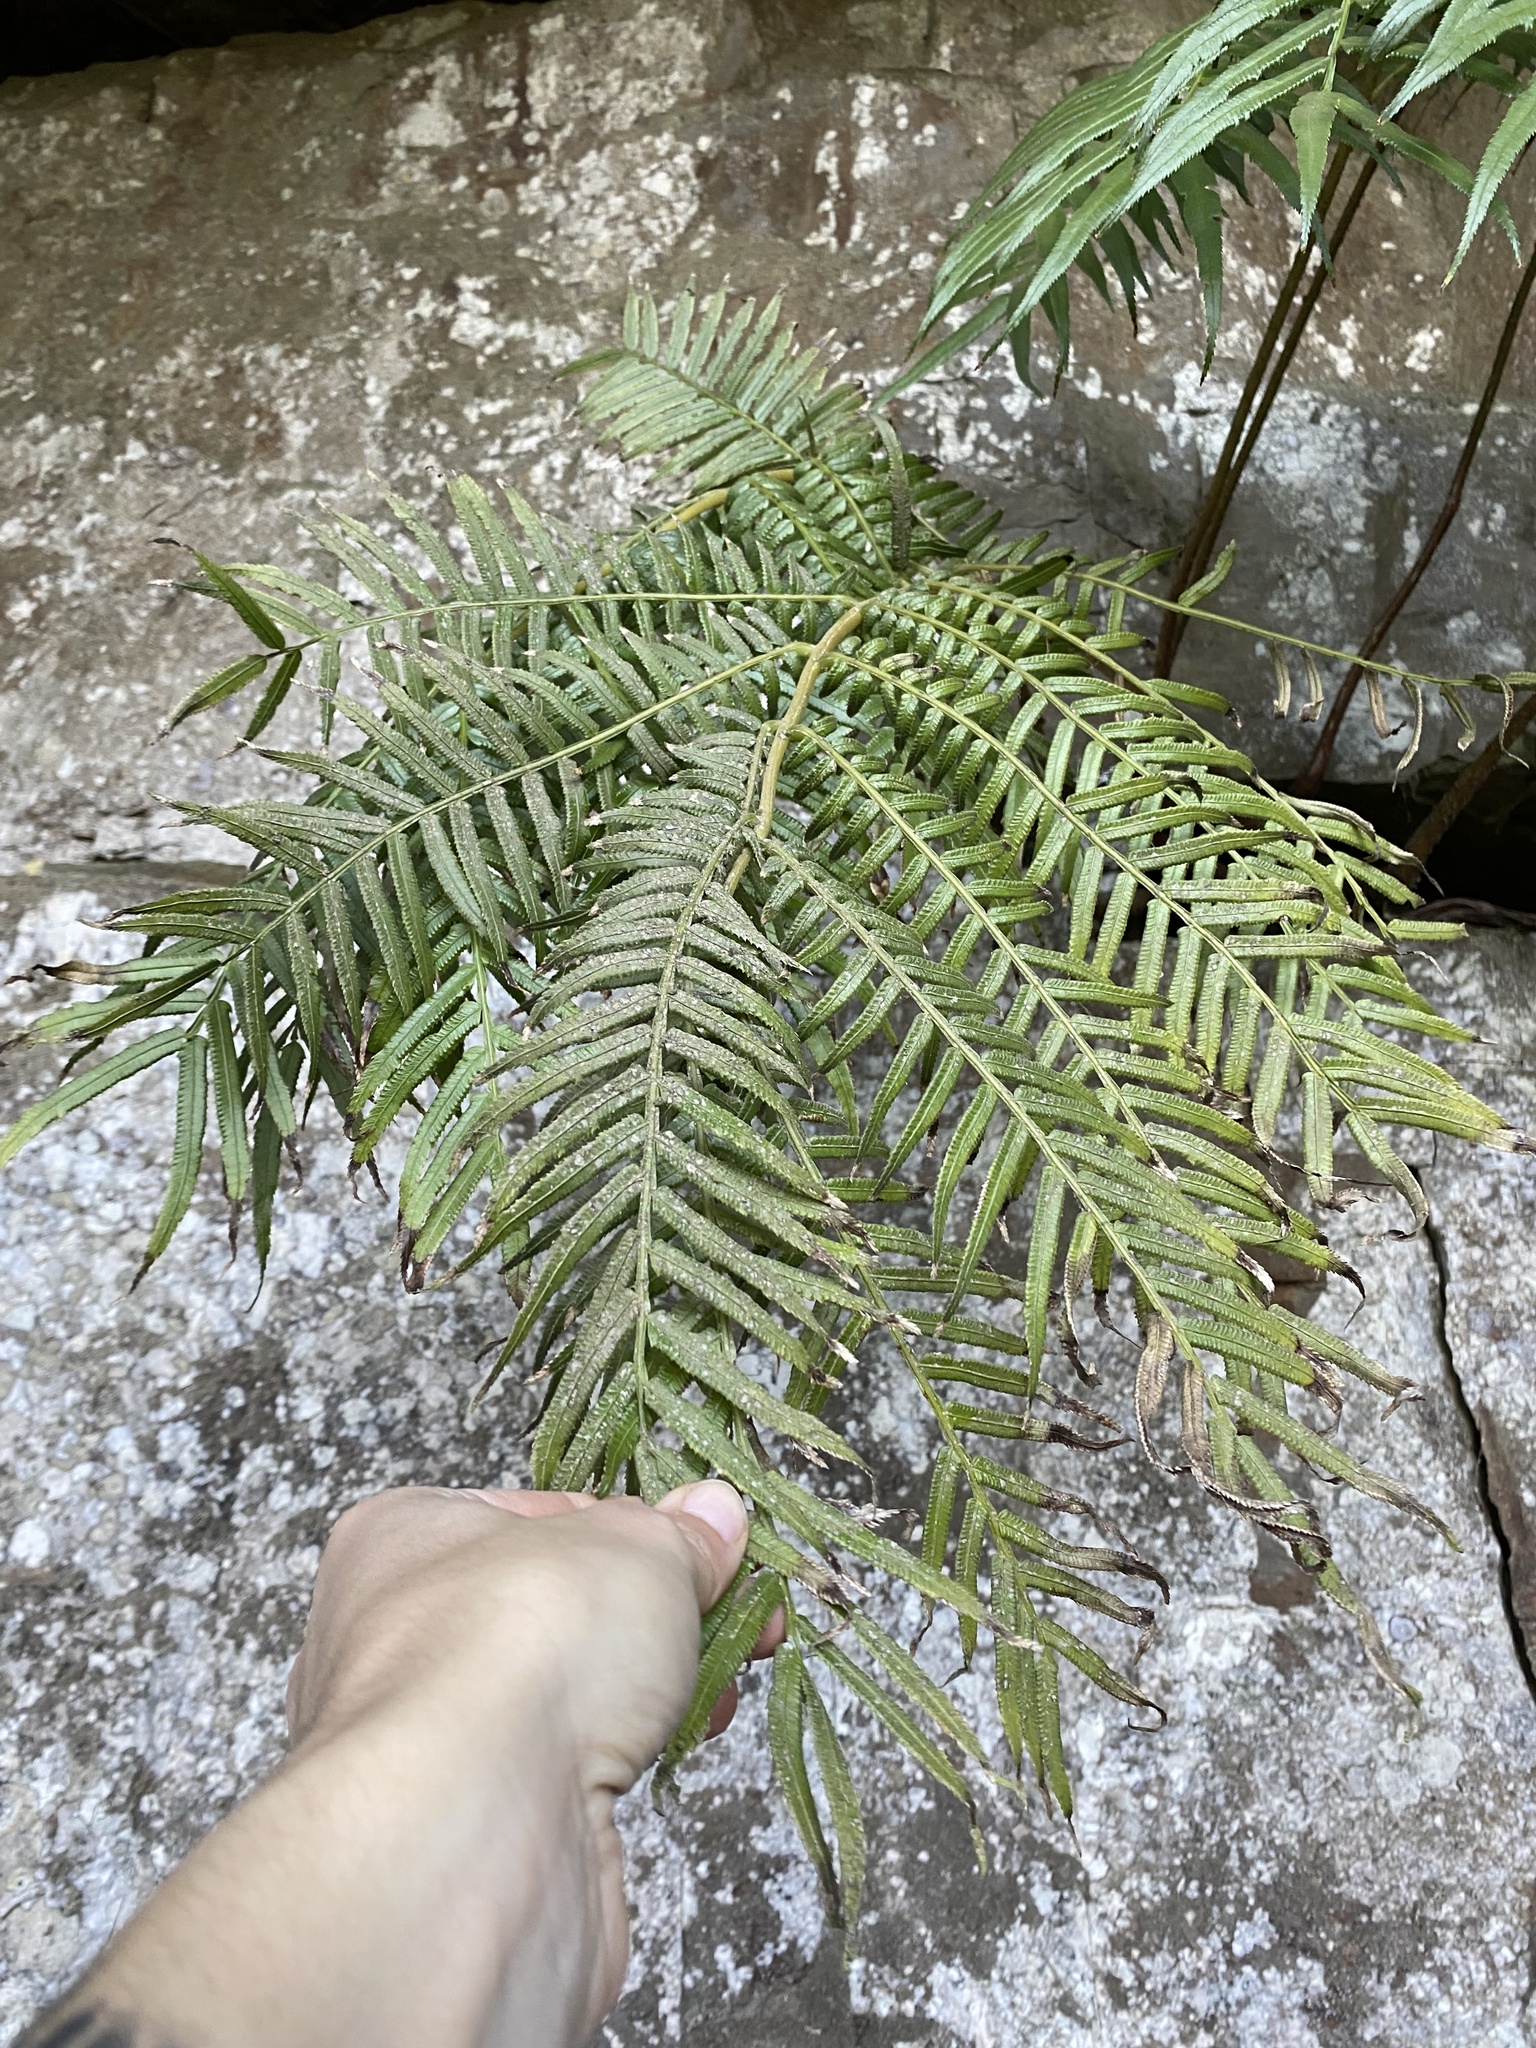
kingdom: Plantae
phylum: Tracheophyta
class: Polypodiopsida
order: Marattiales
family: Marattiaceae
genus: Ptisana
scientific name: Ptisana fraxinea
